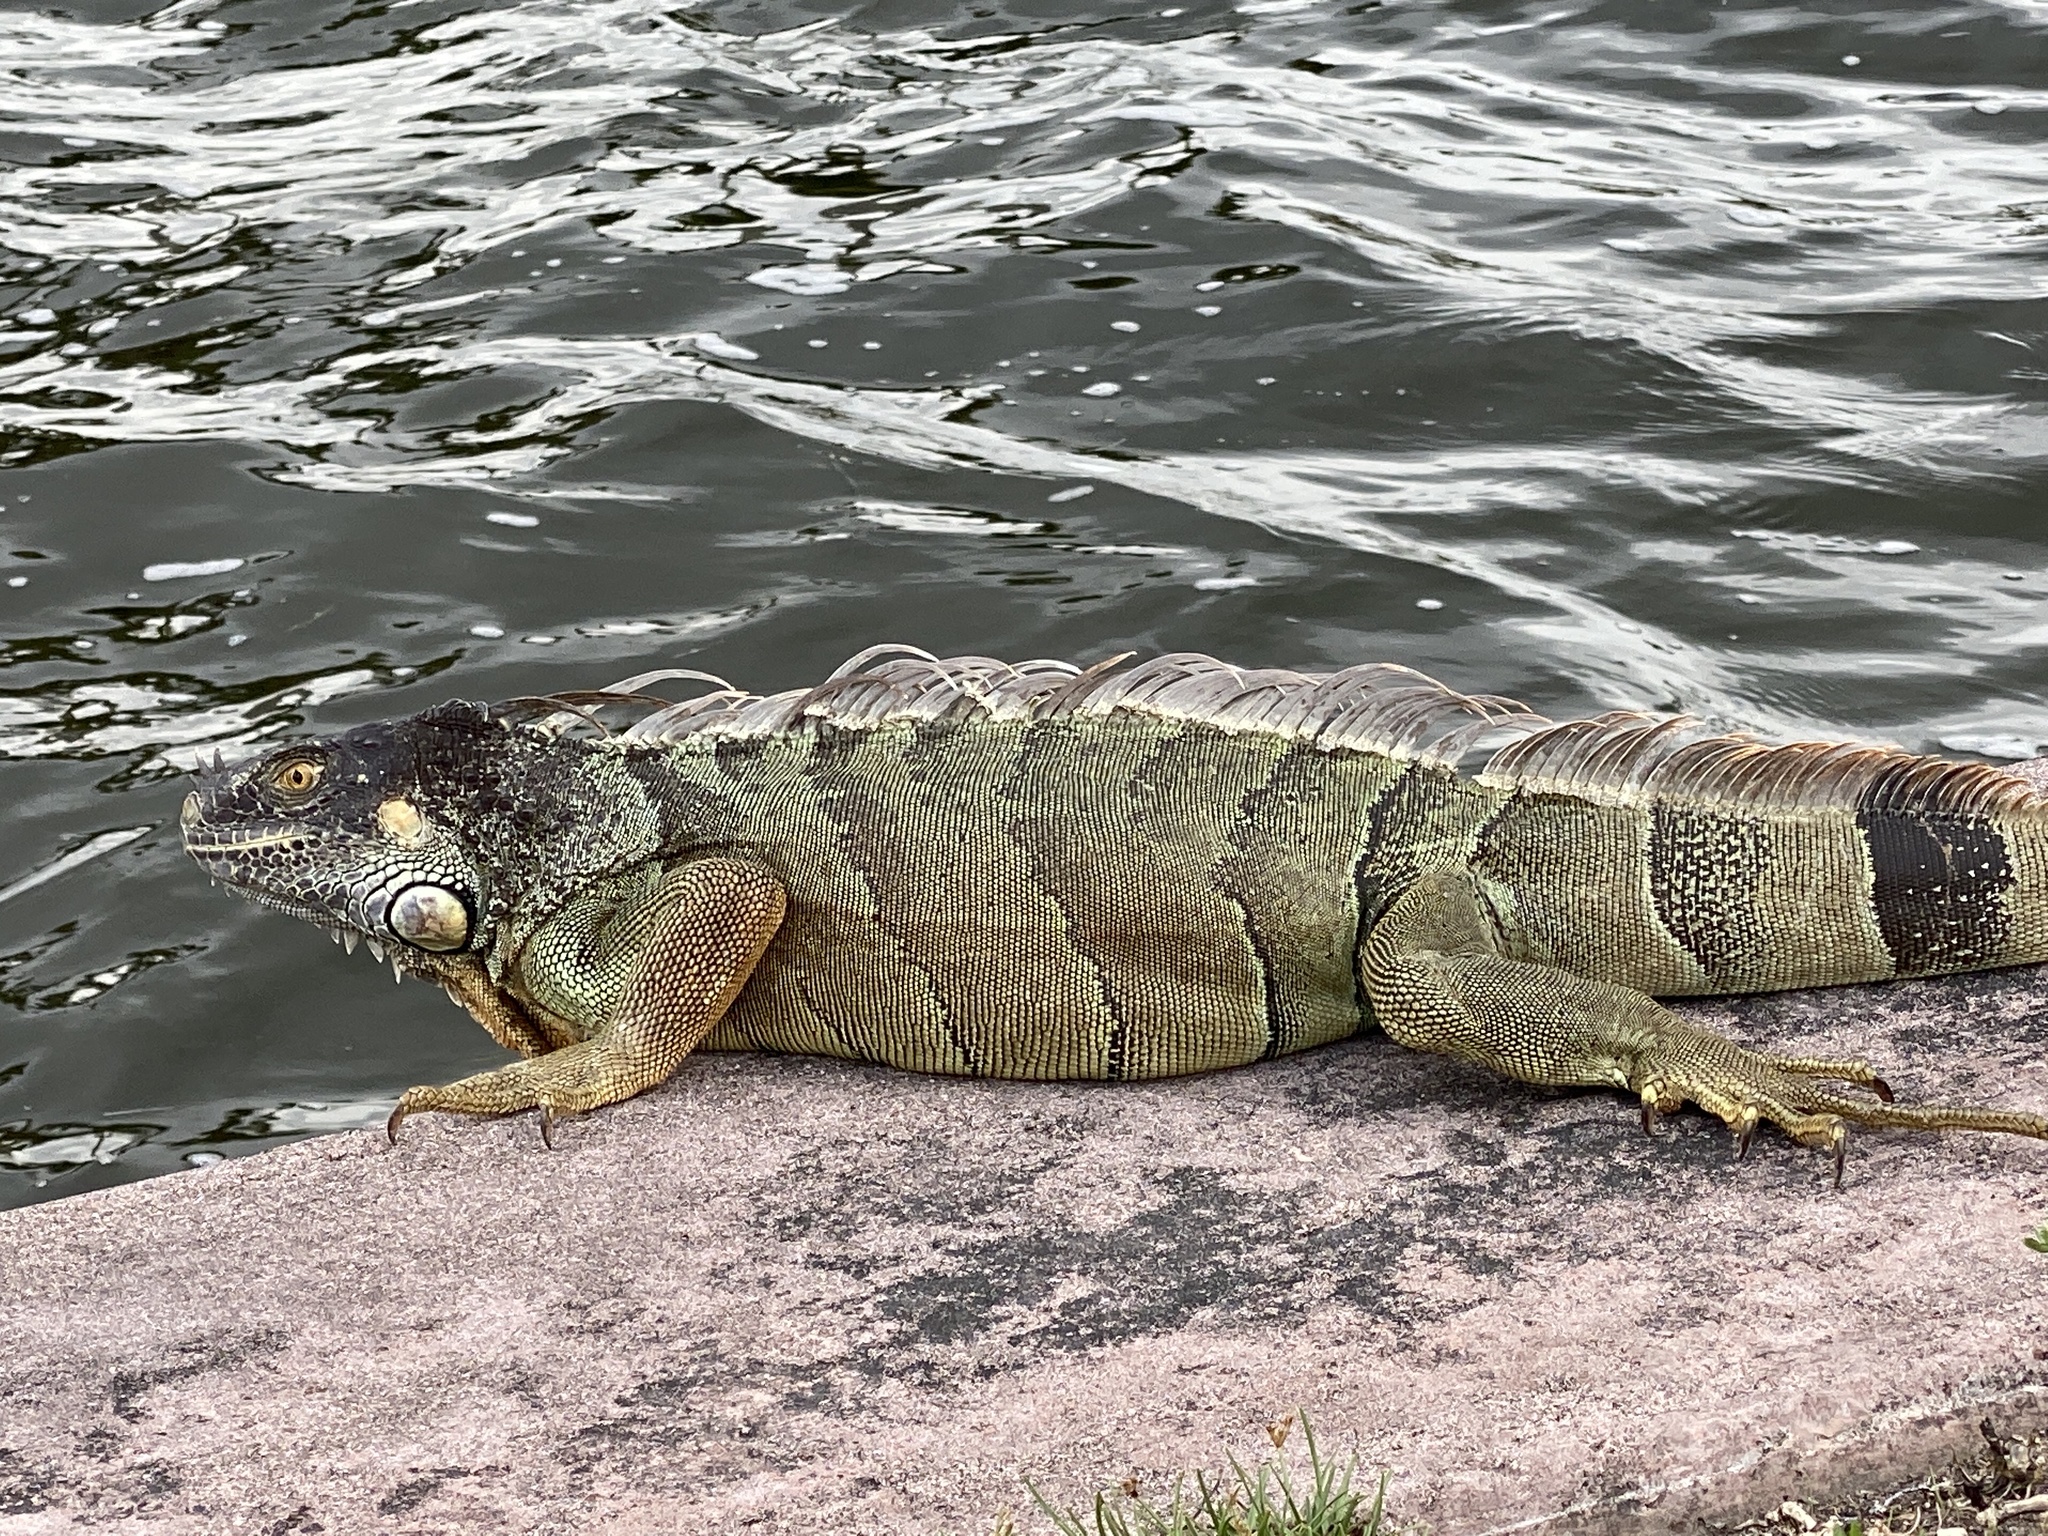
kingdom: Animalia
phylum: Chordata
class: Squamata
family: Iguanidae
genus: Iguana
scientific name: Iguana iguana
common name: Green iguana
